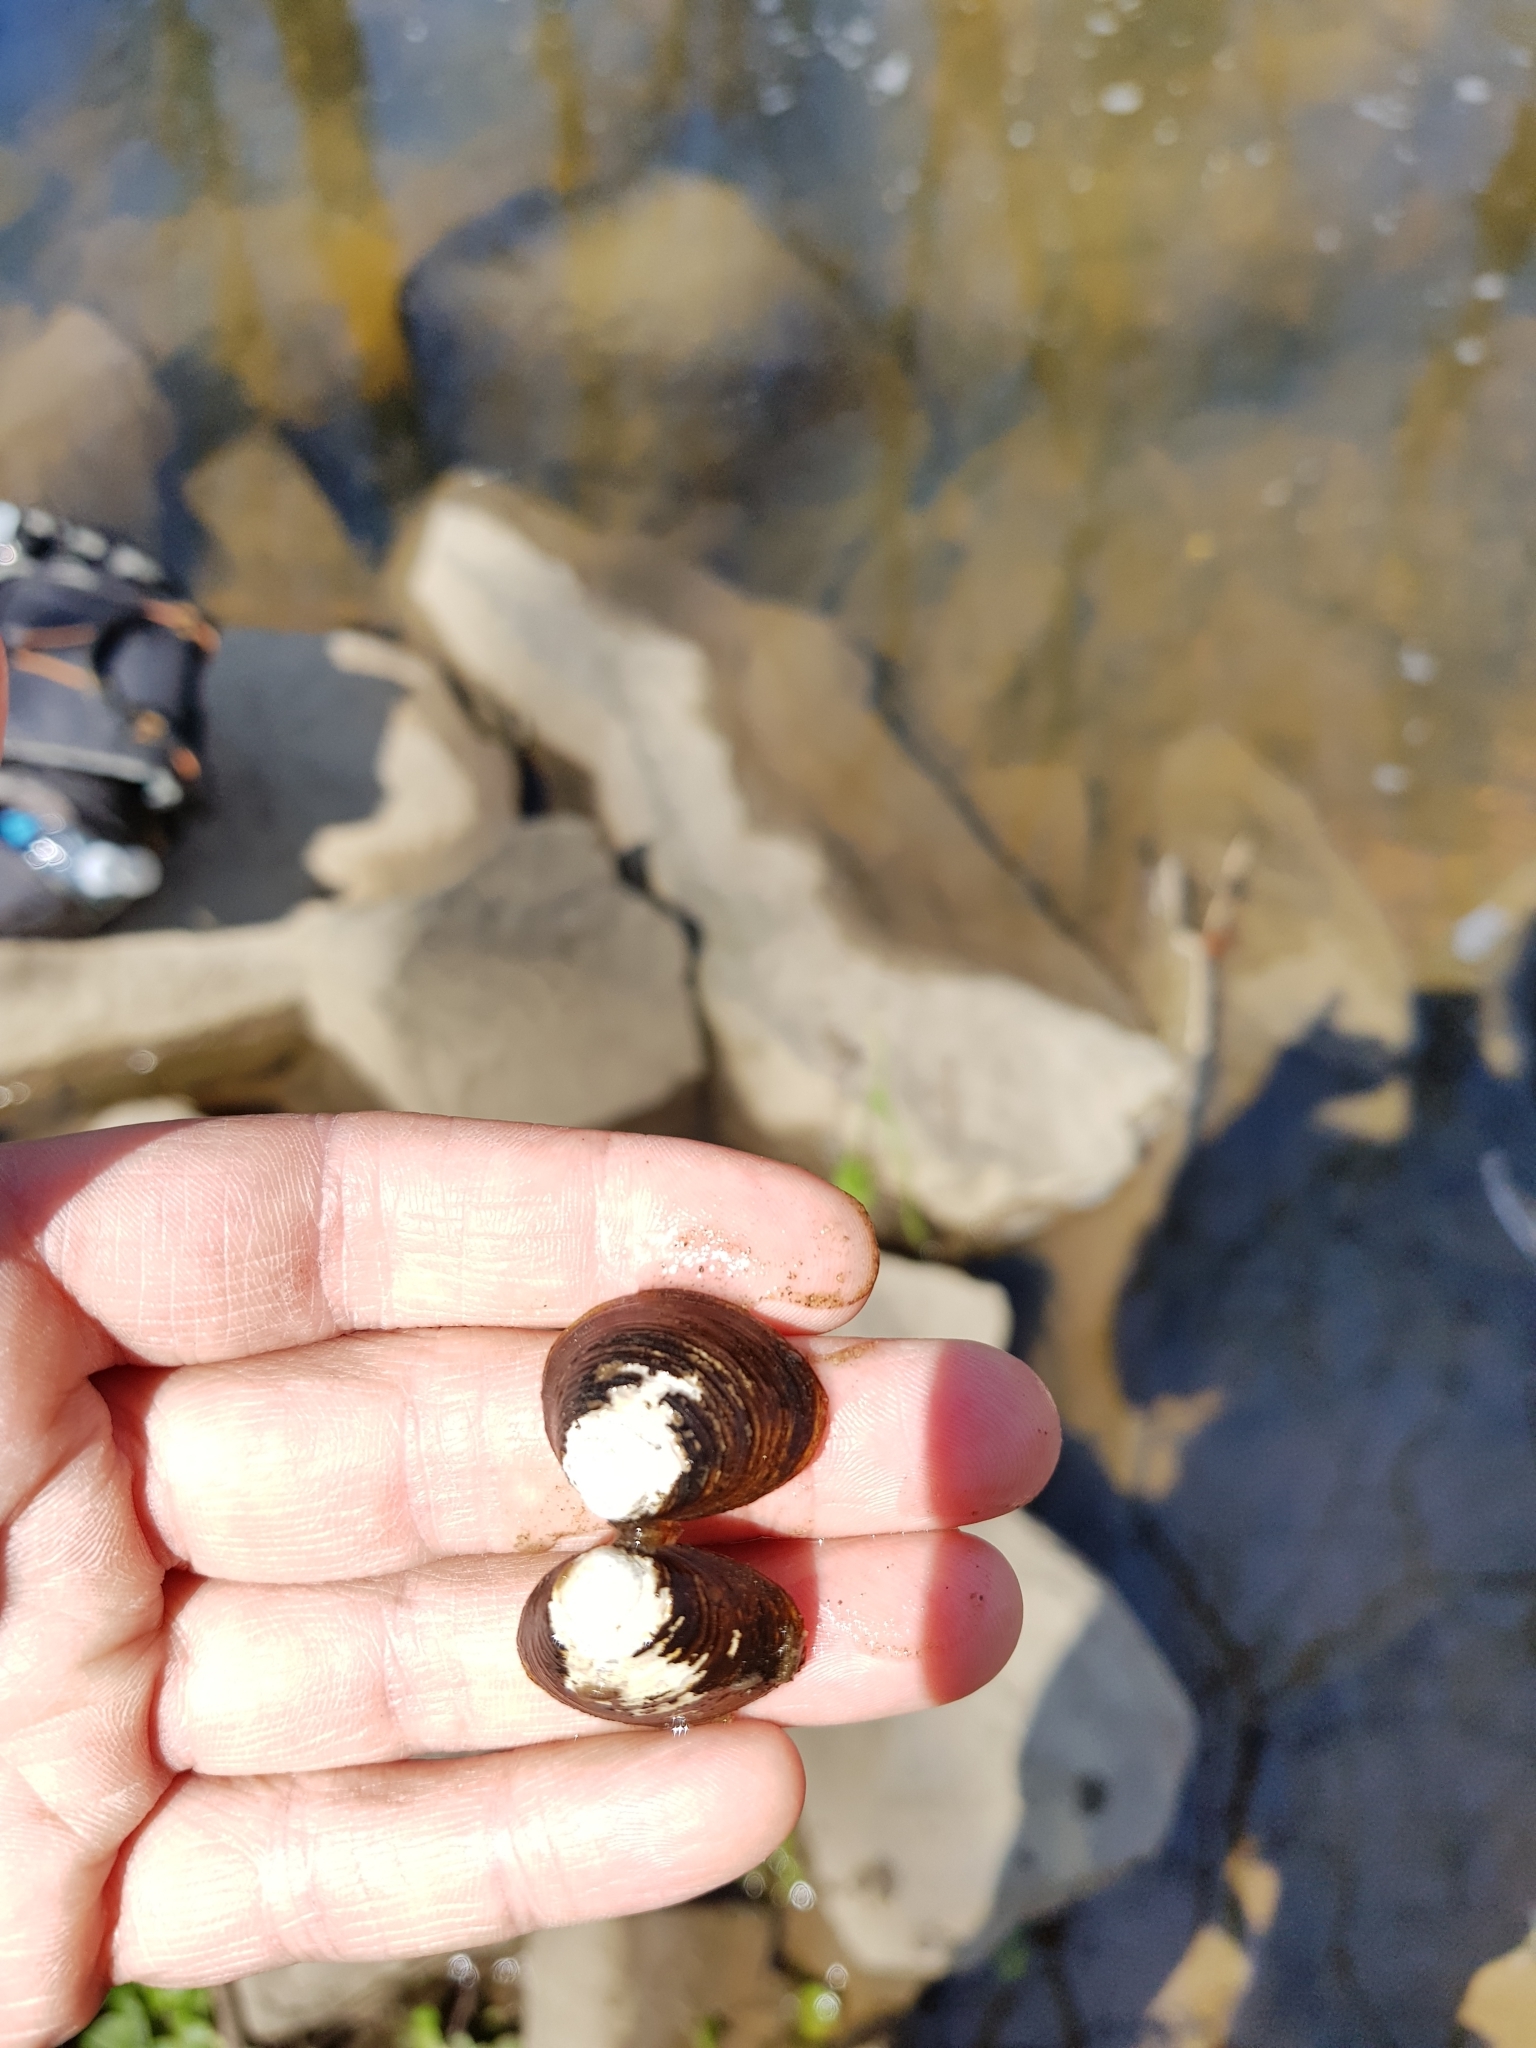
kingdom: Animalia
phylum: Mollusca
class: Bivalvia
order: Venerida
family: Cyrenidae
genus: Corbicula
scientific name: Corbicula fluminea
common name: Asian clam
